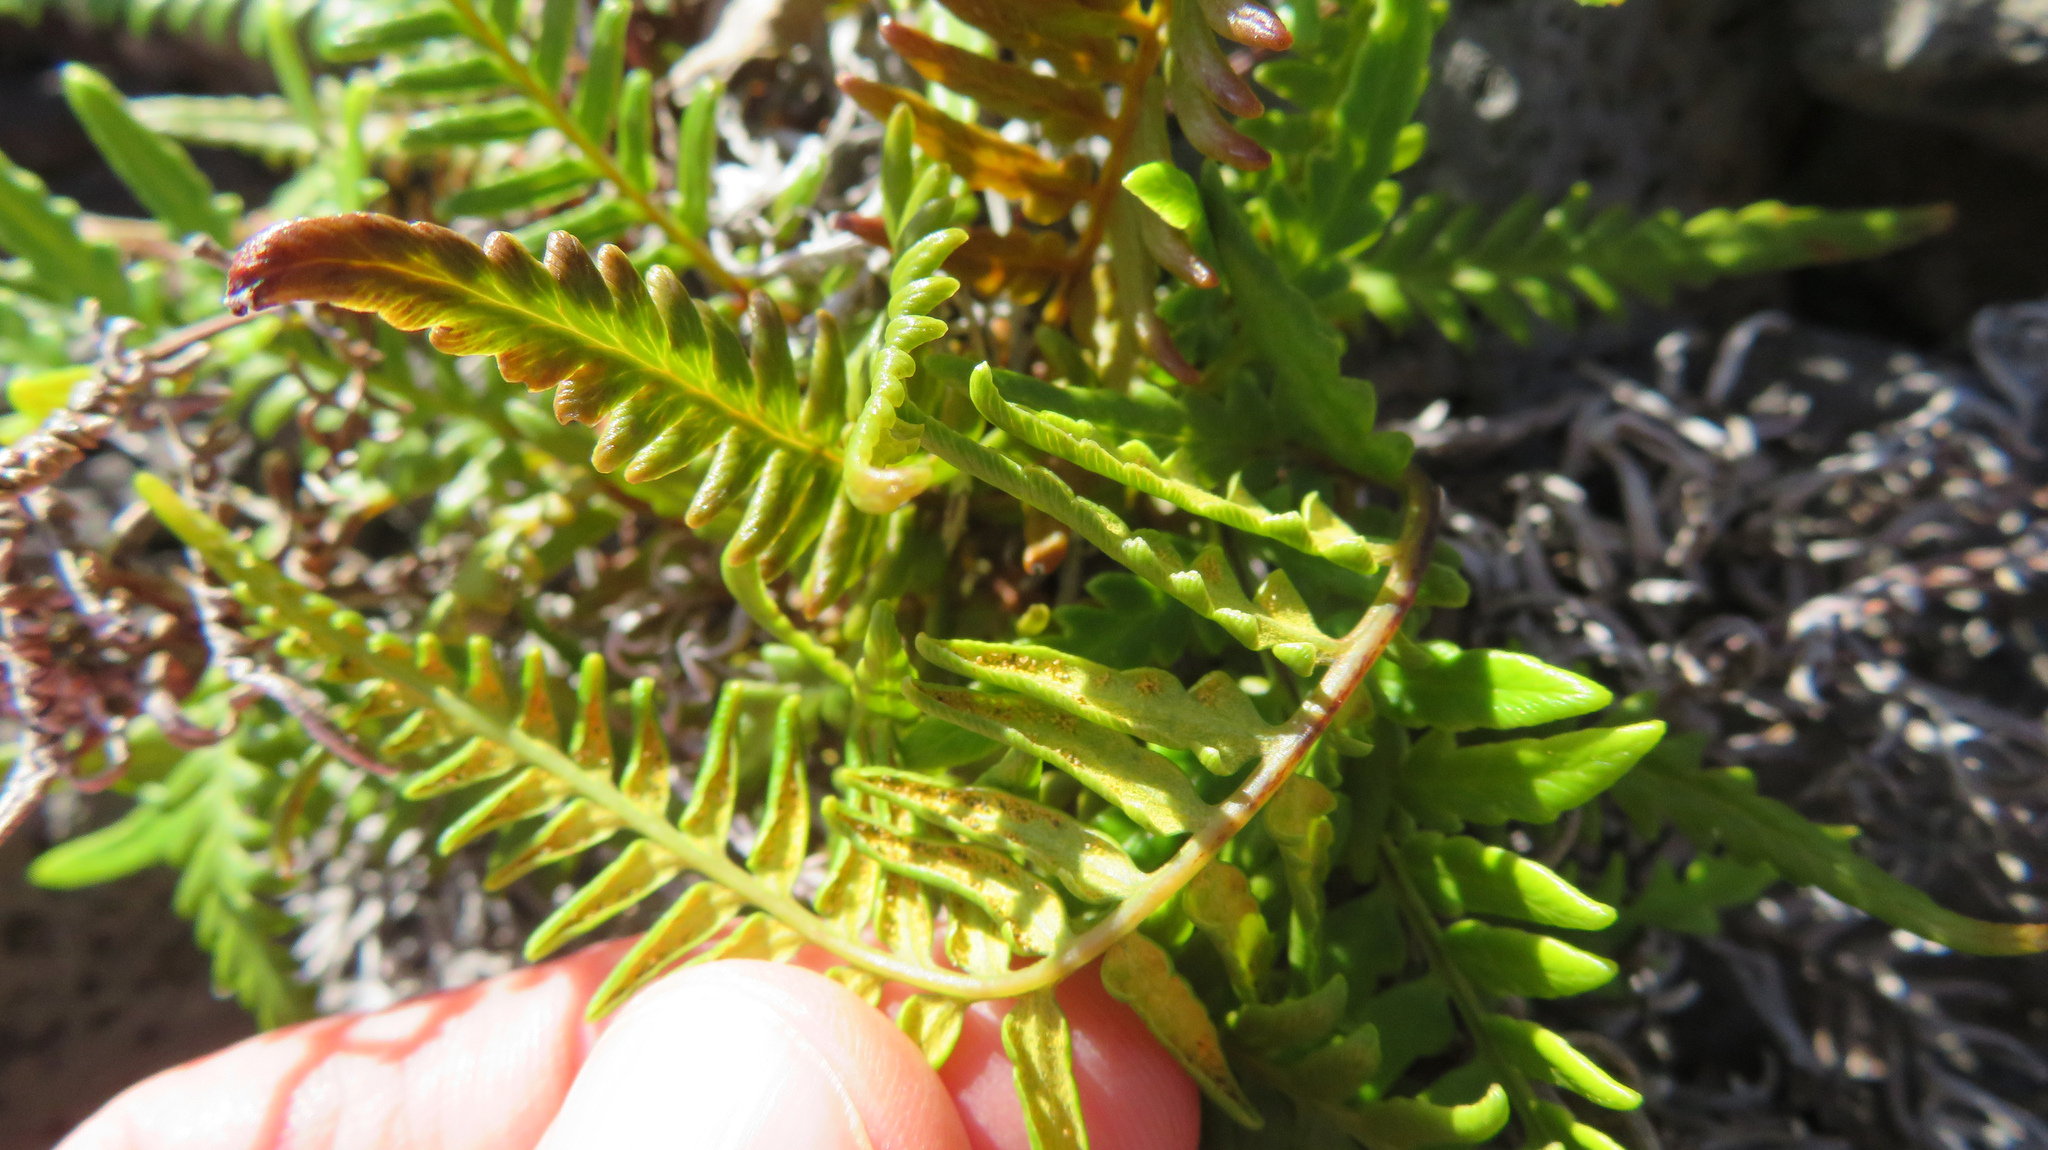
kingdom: Plantae
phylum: Tracheophyta
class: Polypodiopsida
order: Polypodiales
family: Pteridaceae
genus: Pityrogramma
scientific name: Pityrogramma austroamericana
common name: Leatherleaf goldback fern
